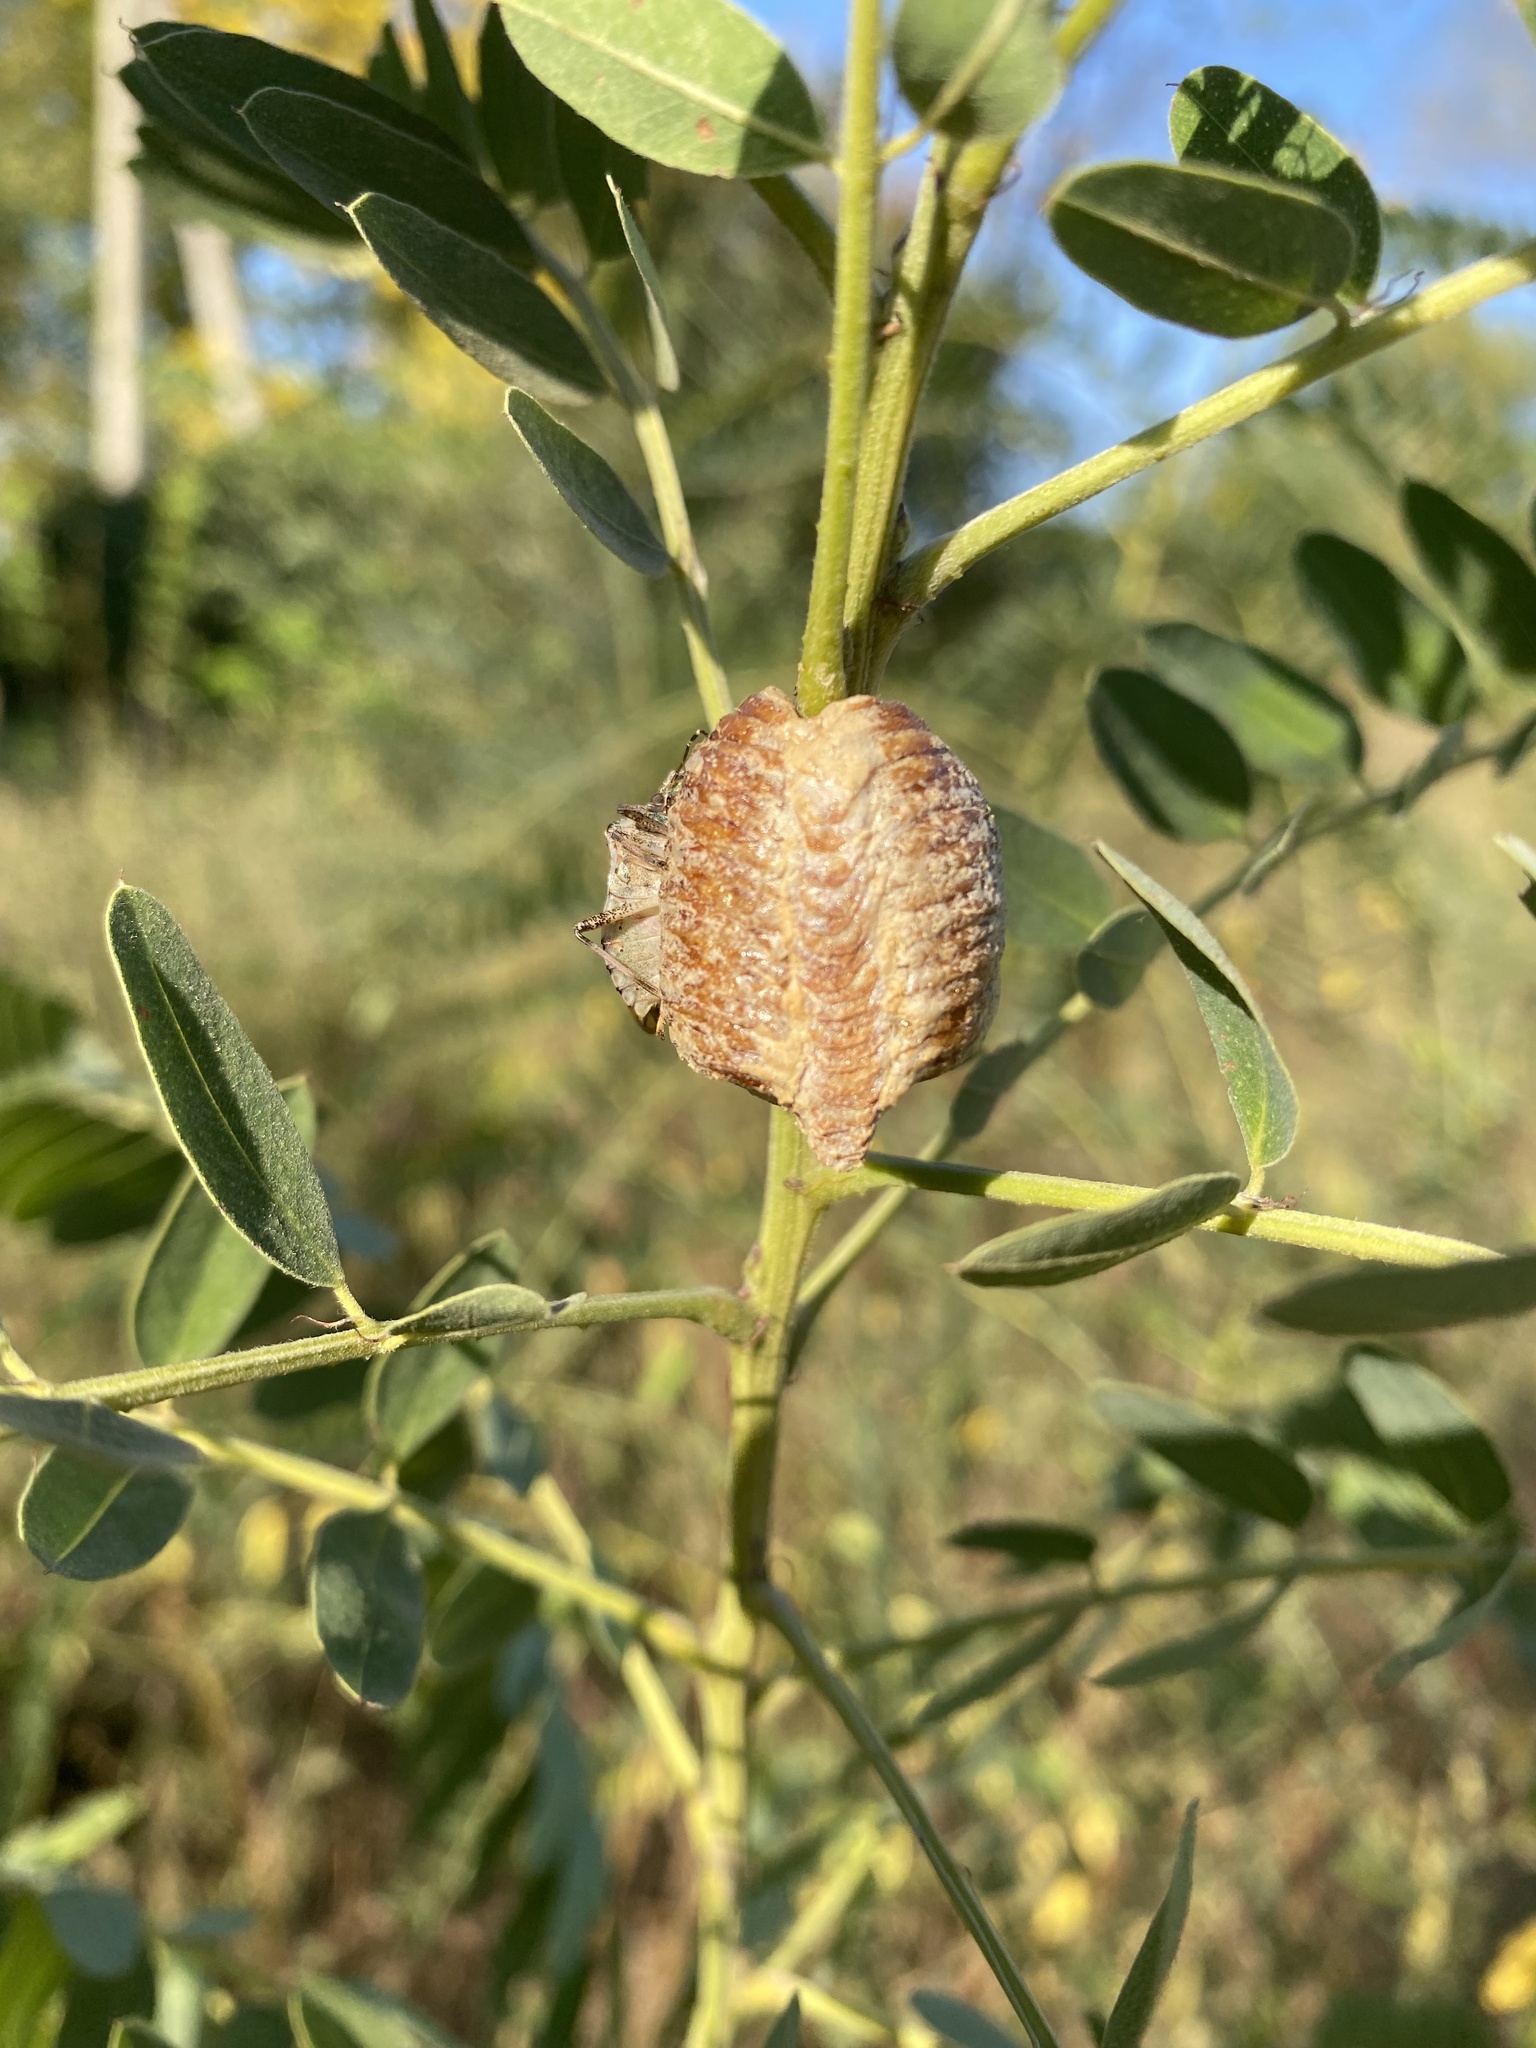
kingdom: Animalia
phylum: Arthropoda
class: Insecta
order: Mantodea
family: Mantidae
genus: Hierodula
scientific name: Hierodula transcaucasica
